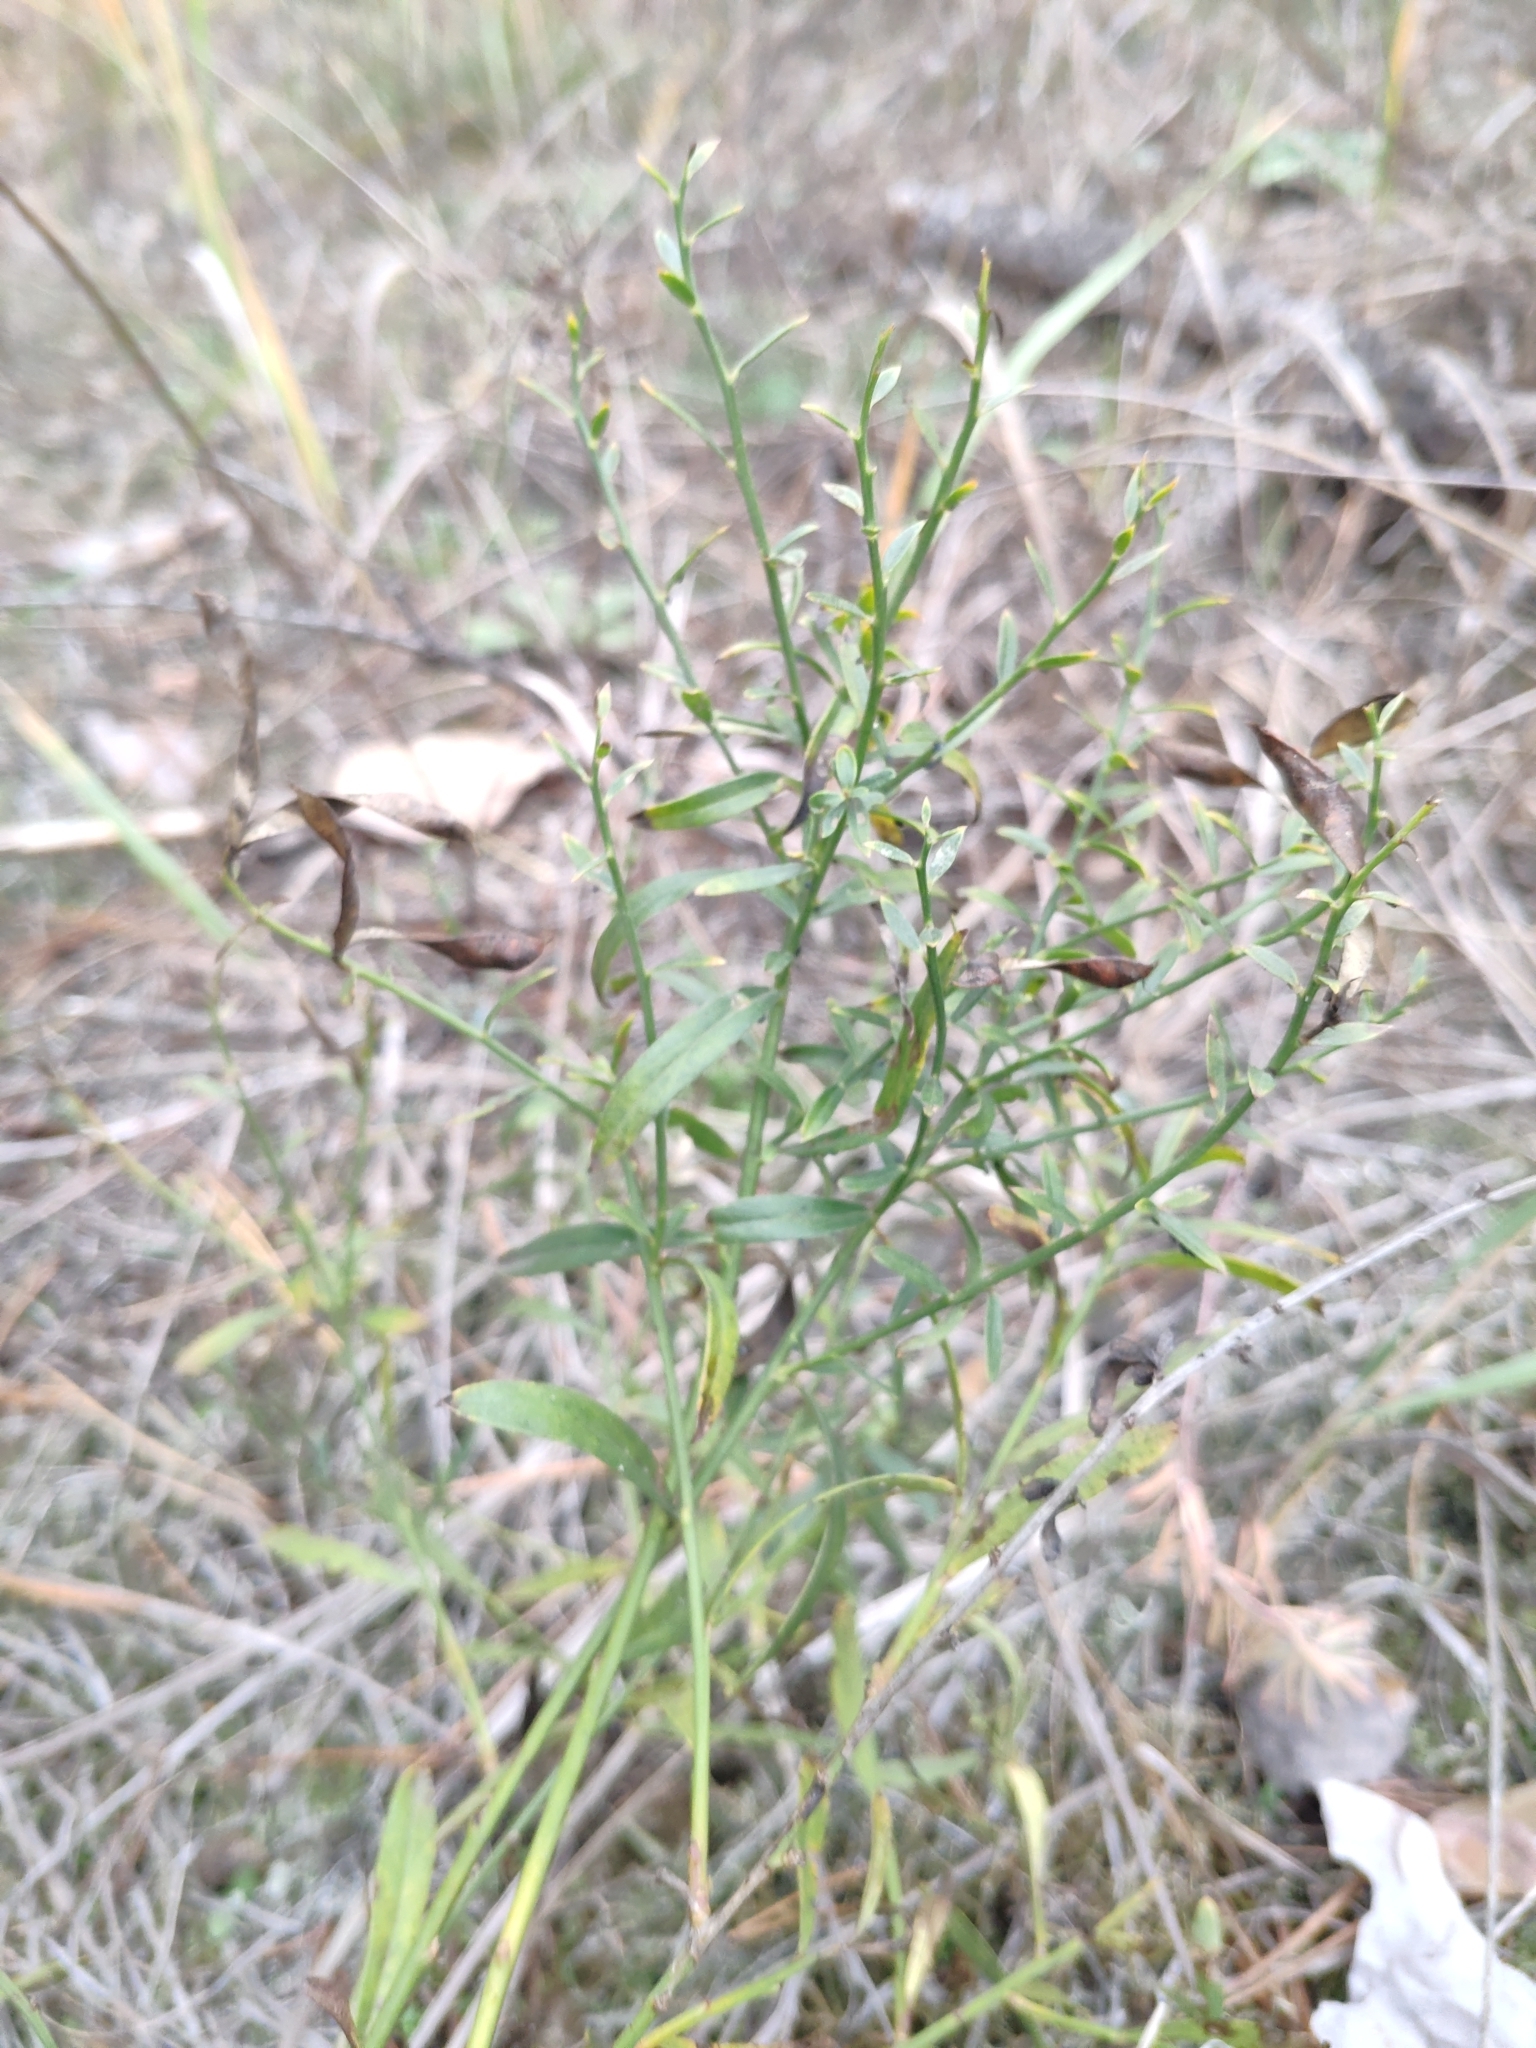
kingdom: Plantae
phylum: Tracheophyta
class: Magnoliopsida
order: Fabales
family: Fabaceae
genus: Genista
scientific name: Genista tinctoria
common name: Dyer's greenweed
